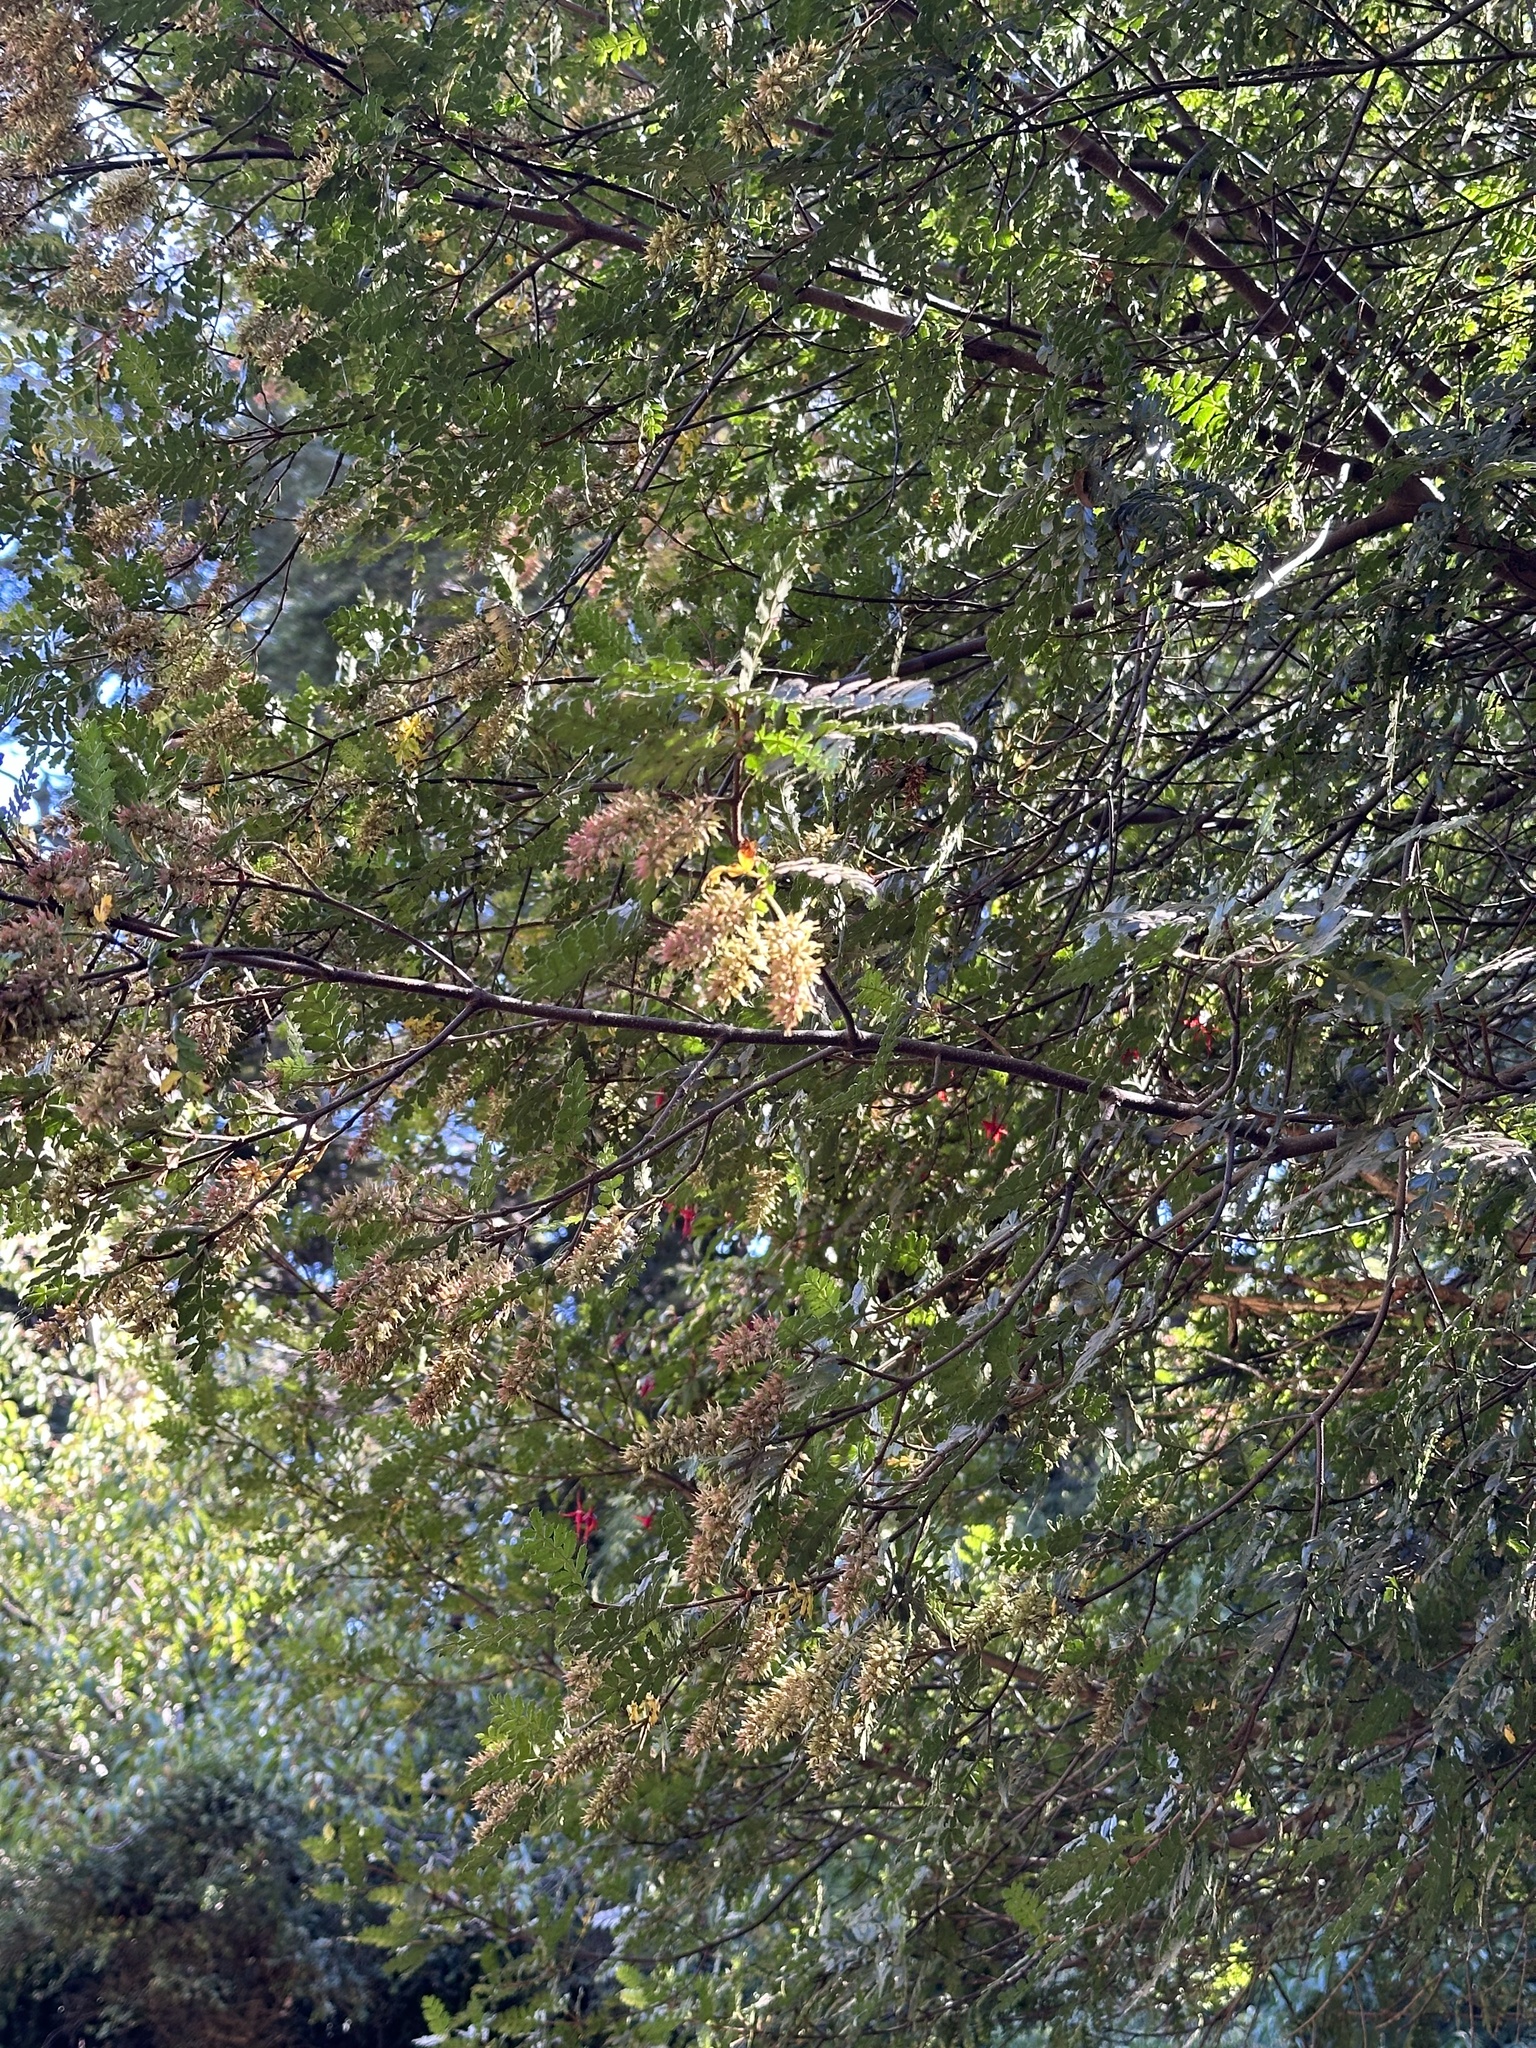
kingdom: Plantae
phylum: Tracheophyta
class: Magnoliopsida
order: Oxalidales
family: Cunoniaceae
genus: Weinmannia
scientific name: Weinmannia trichosperma
